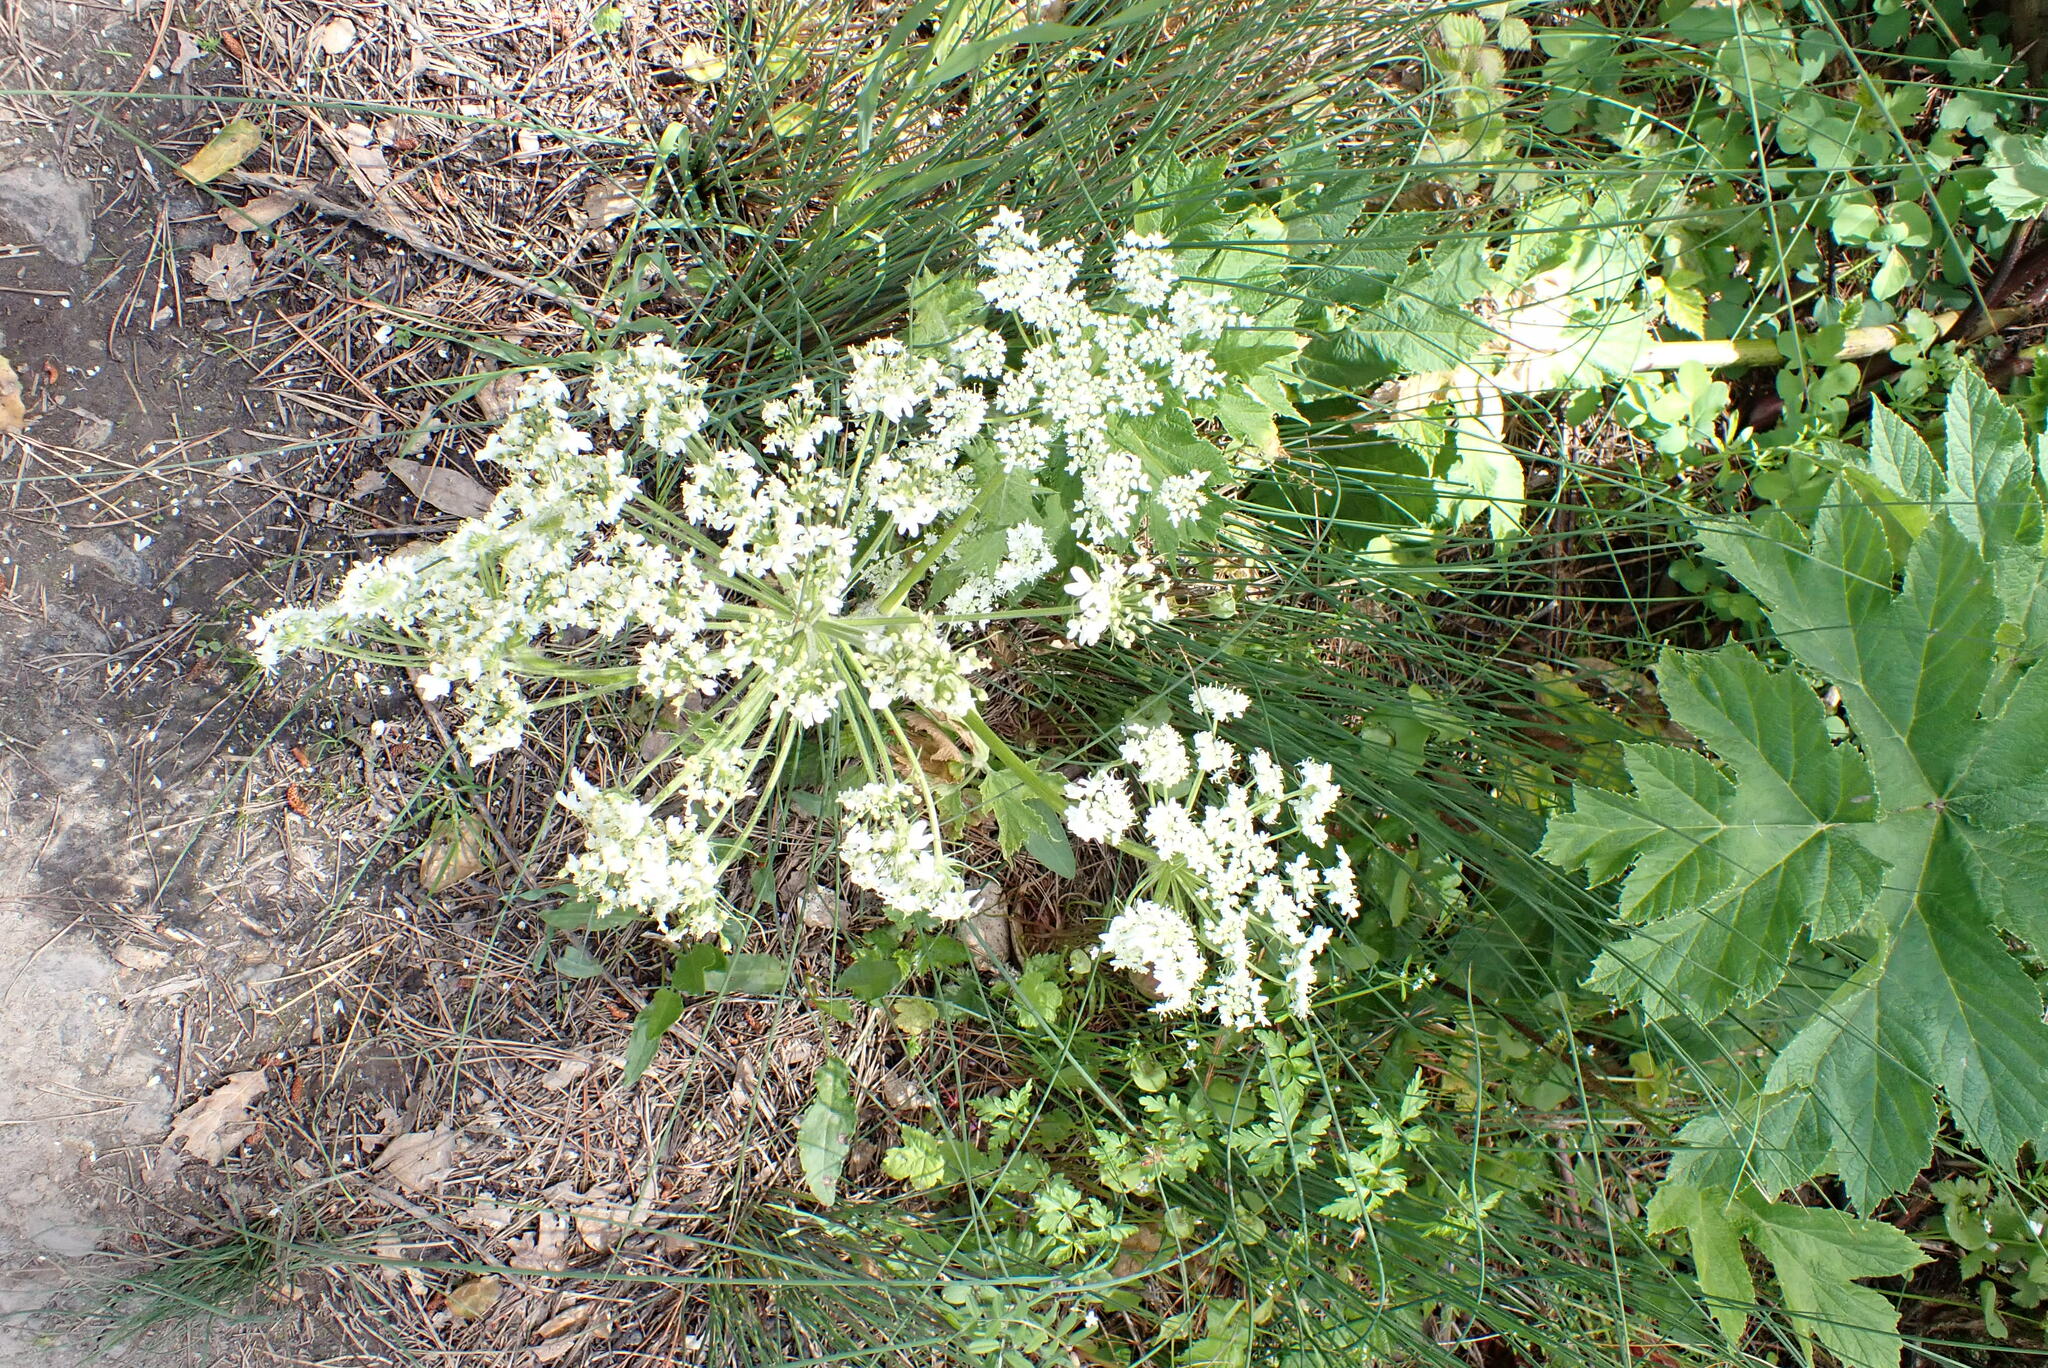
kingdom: Plantae
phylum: Tracheophyta
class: Magnoliopsida
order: Apiales
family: Apiaceae
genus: Heracleum
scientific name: Heracleum maximum
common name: American cow parsnip
